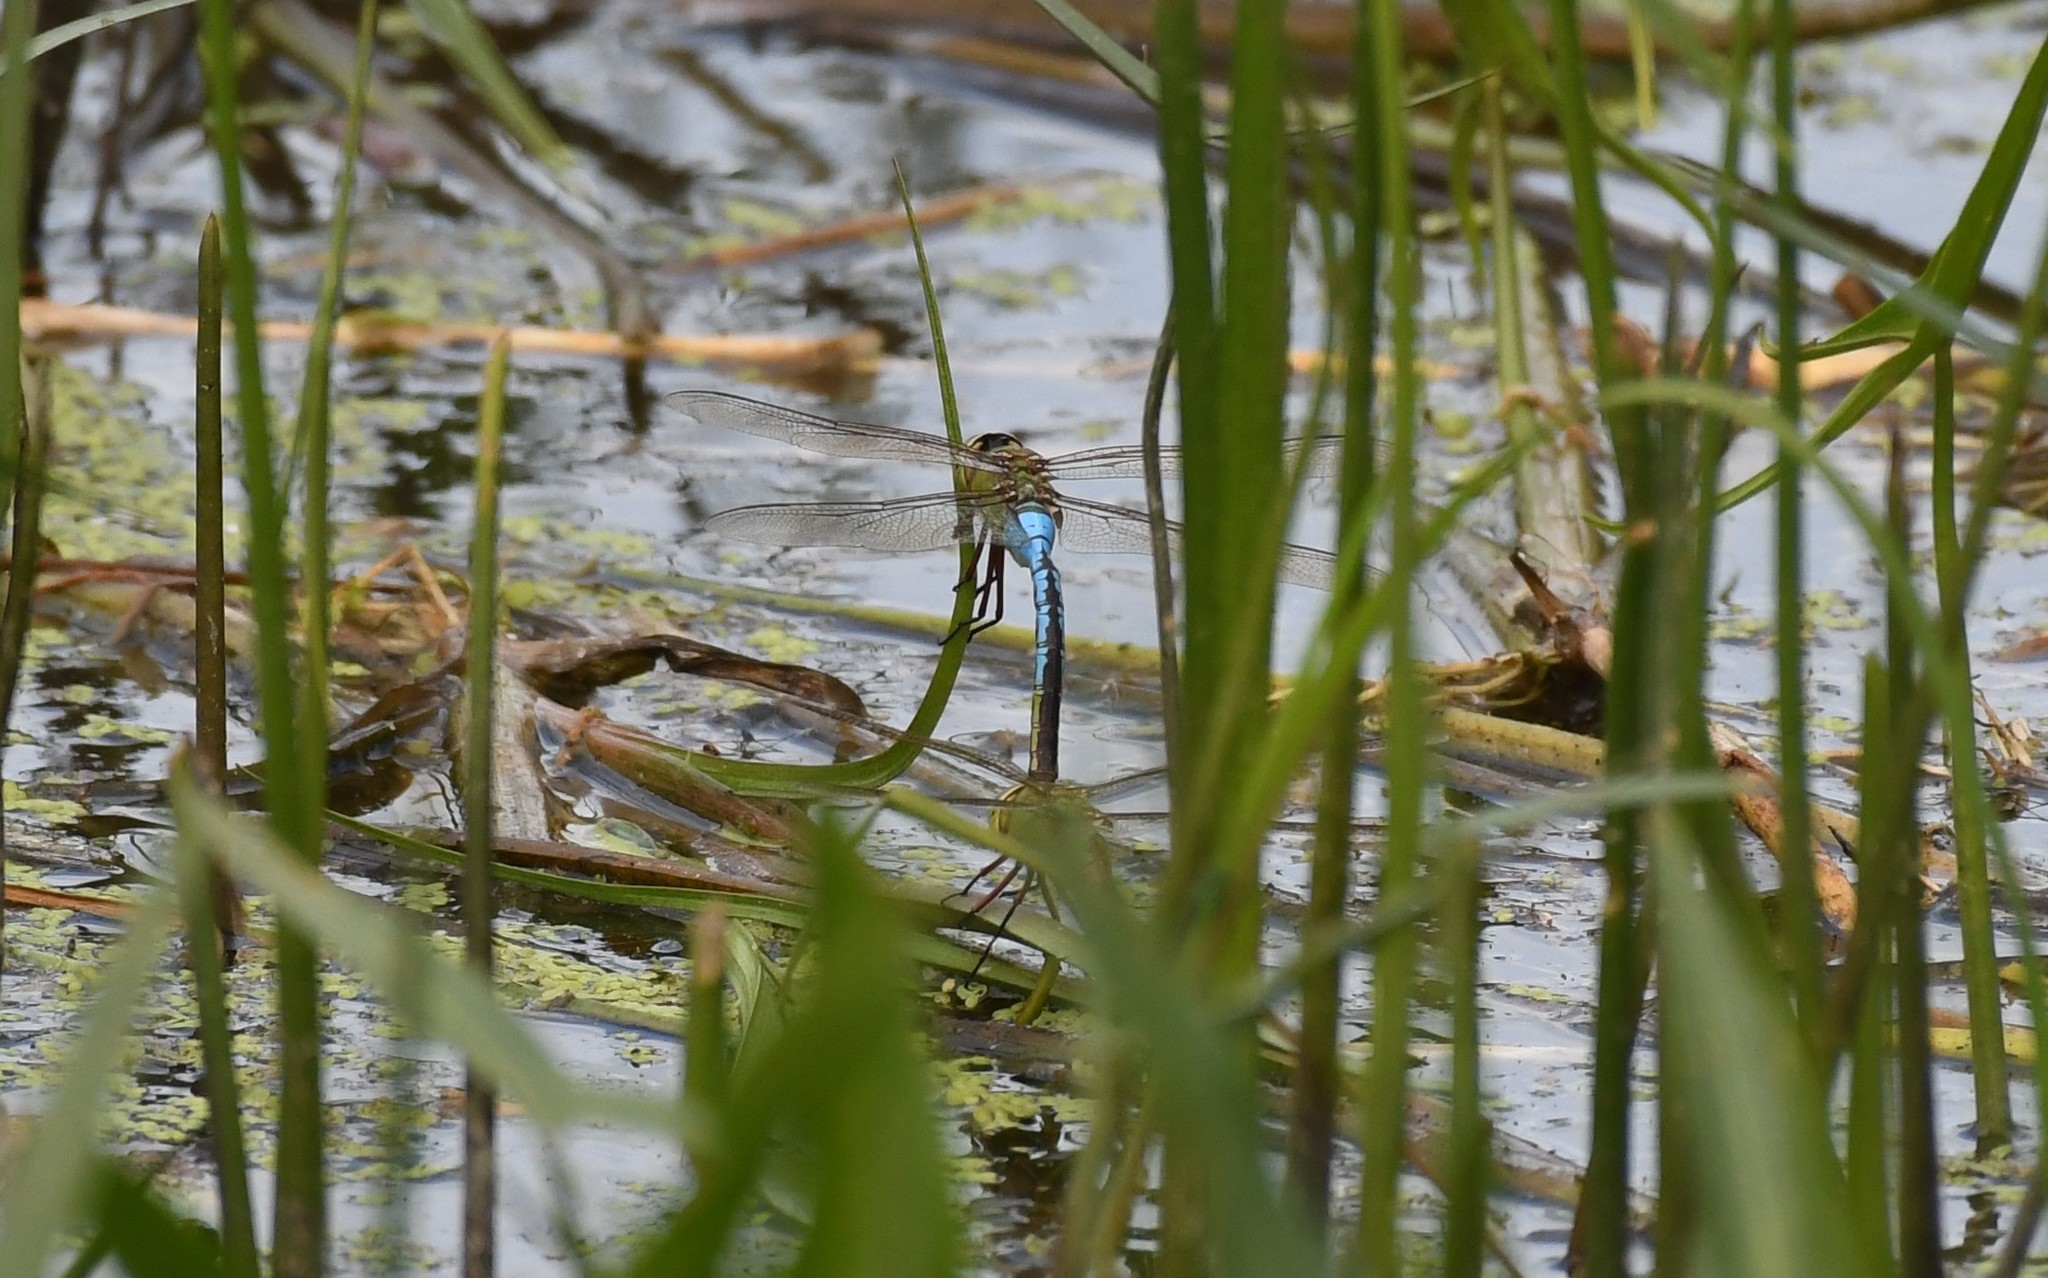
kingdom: Animalia
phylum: Arthropoda
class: Insecta
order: Odonata
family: Aeshnidae
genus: Anax
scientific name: Anax junius
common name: Common green darner
